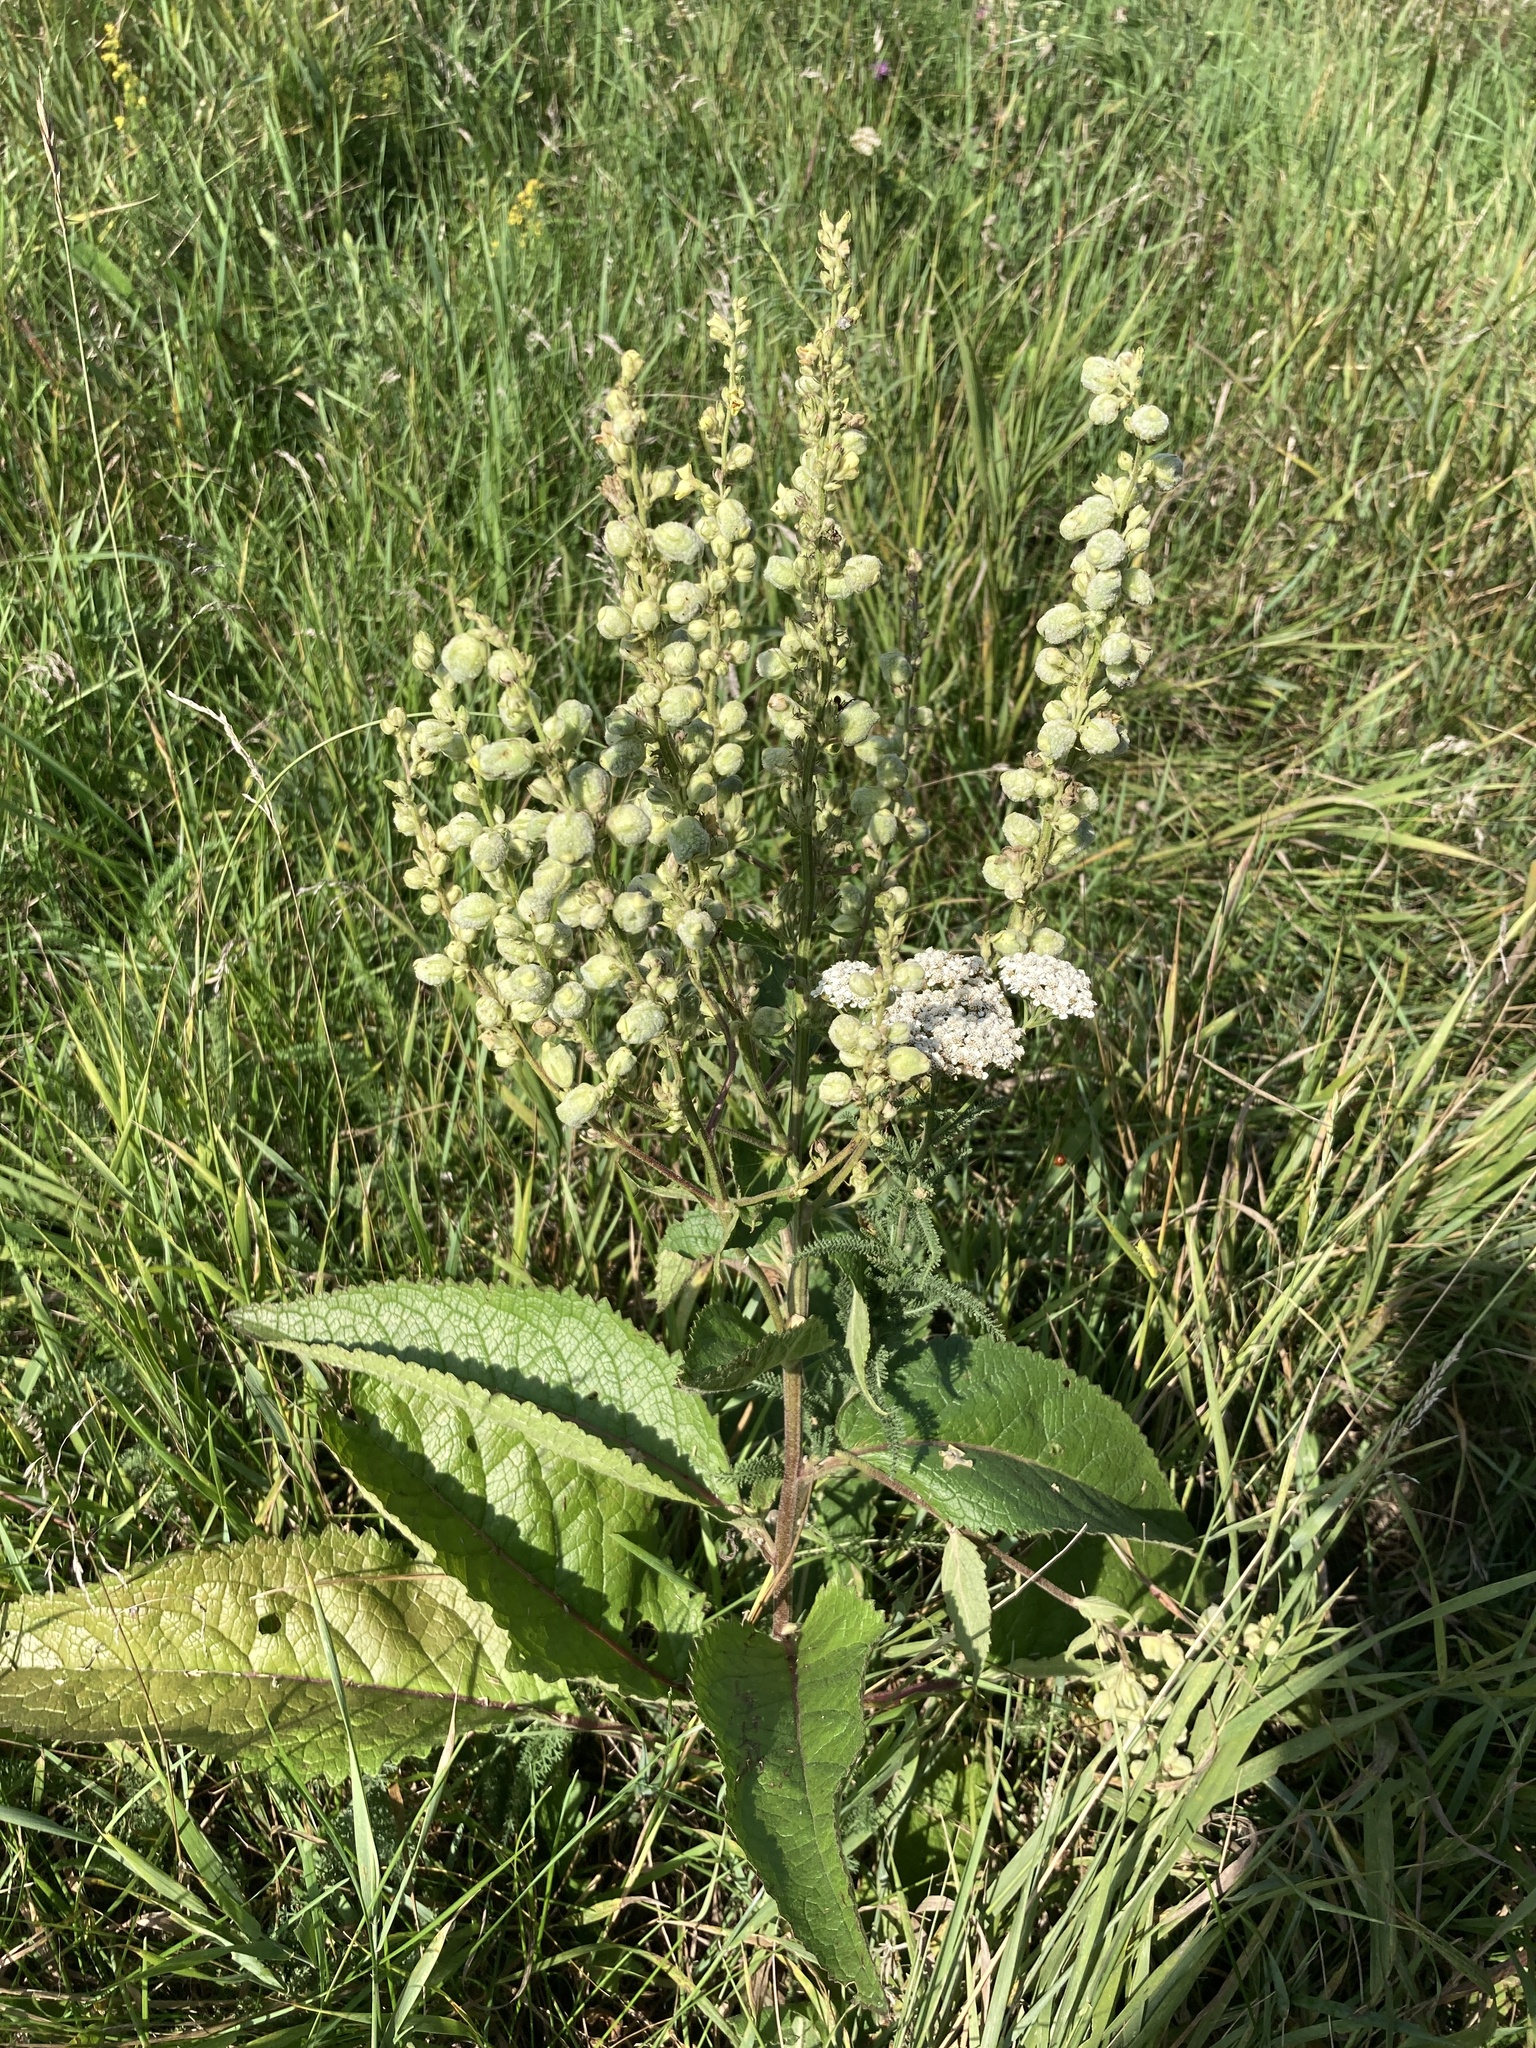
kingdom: Plantae
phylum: Tracheophyta
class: Magnoliopsida
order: Lamiales
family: Scrophulariaceae
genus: Verbascum
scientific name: Verbascum chaixii
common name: Nettle-leaved mullein
